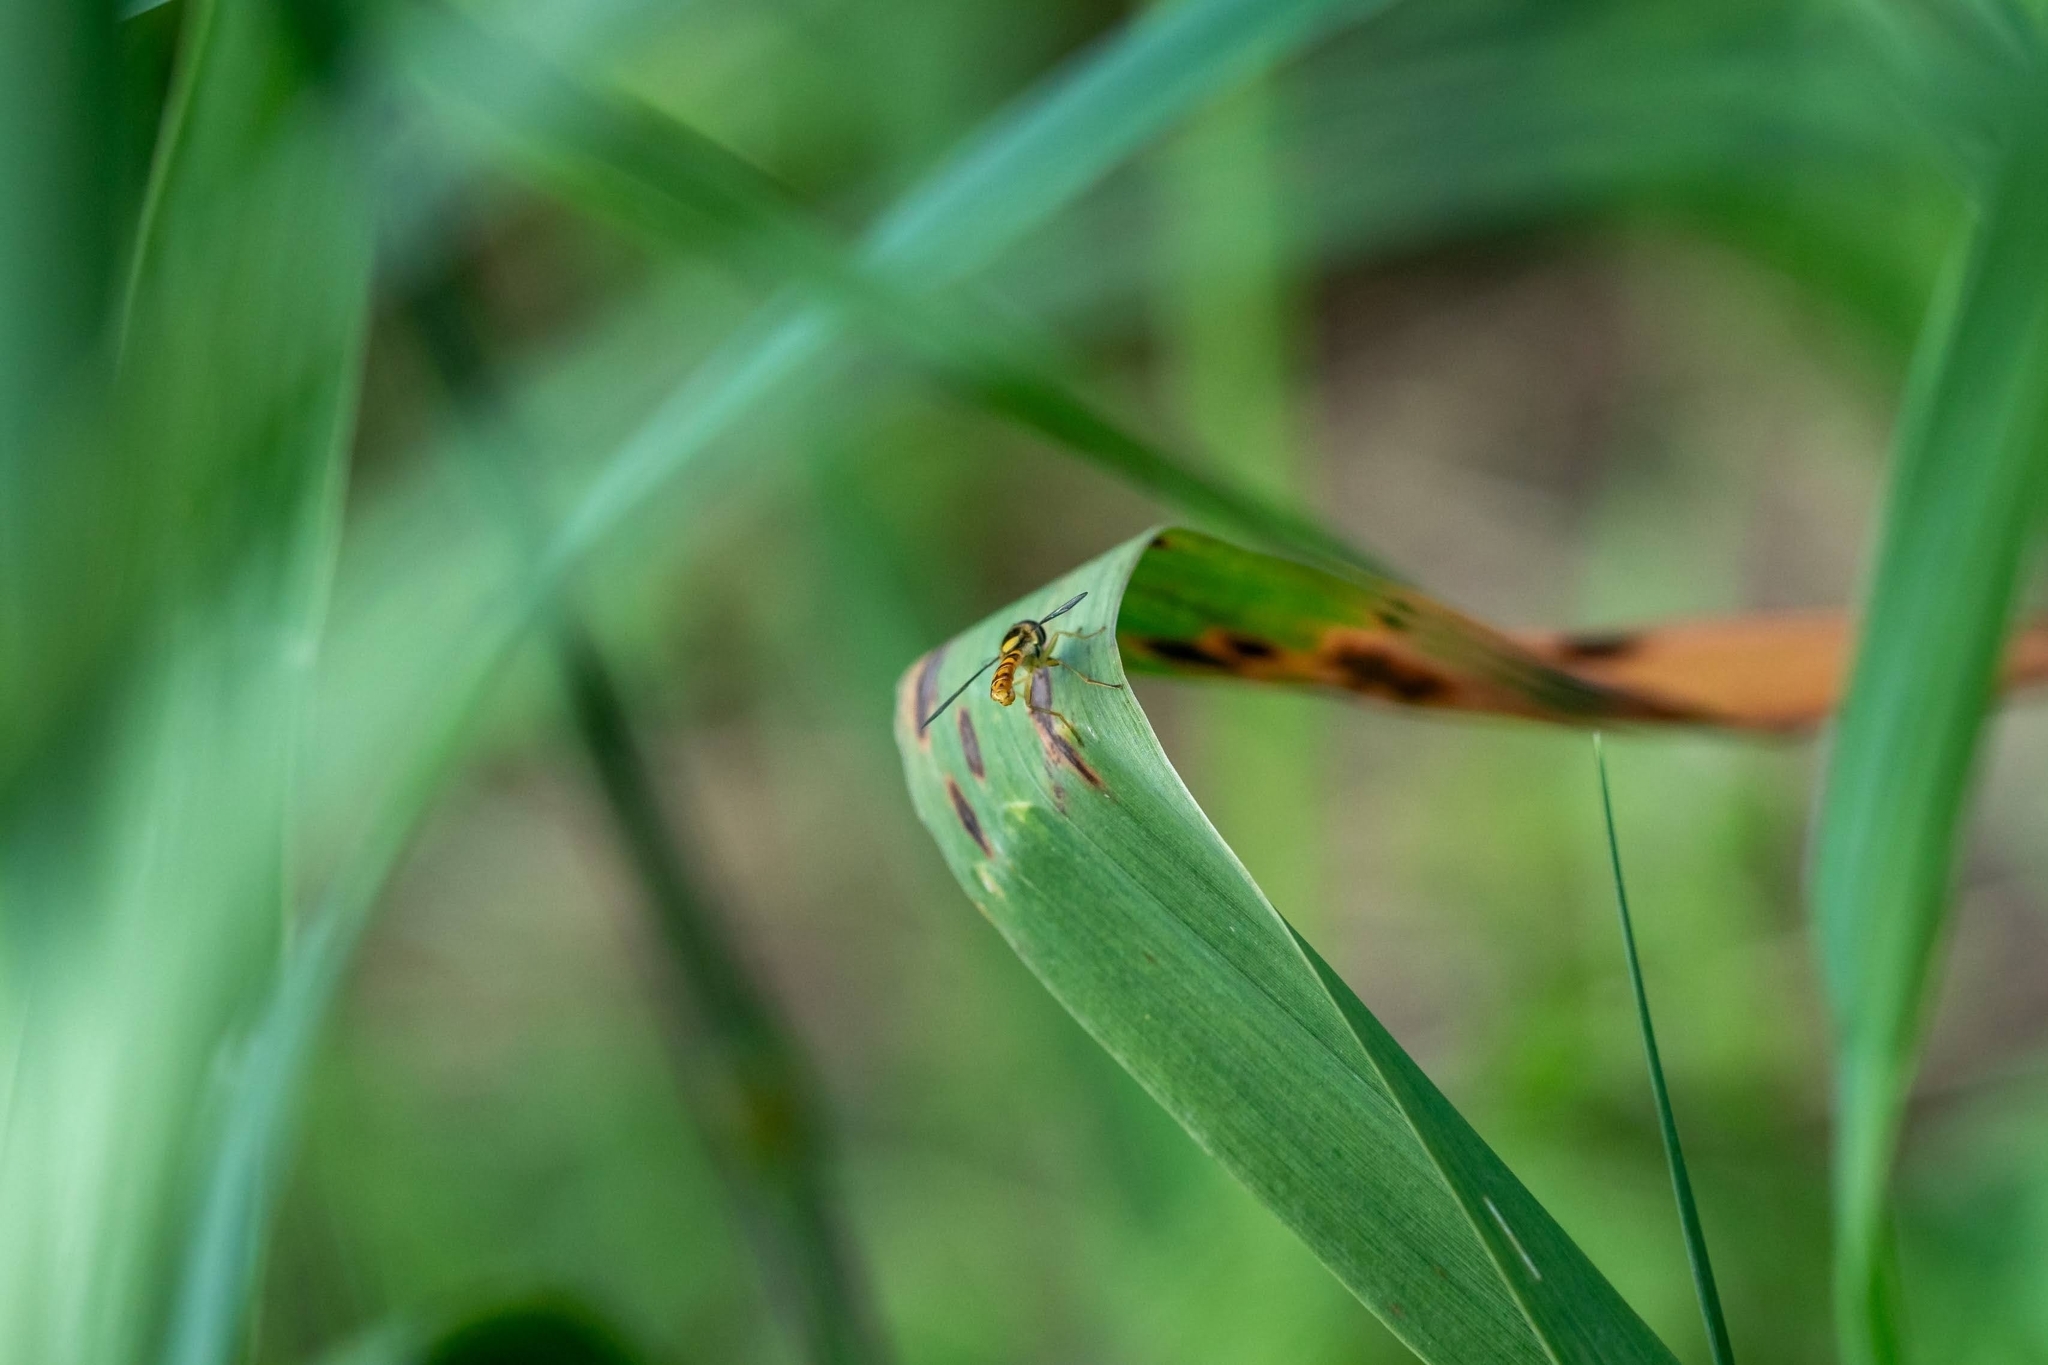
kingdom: Animalia
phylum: Arthropoda
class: Insecta
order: Diptera
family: Syrphidae
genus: Sphaerophoria
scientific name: Sphaerophoria scripta
